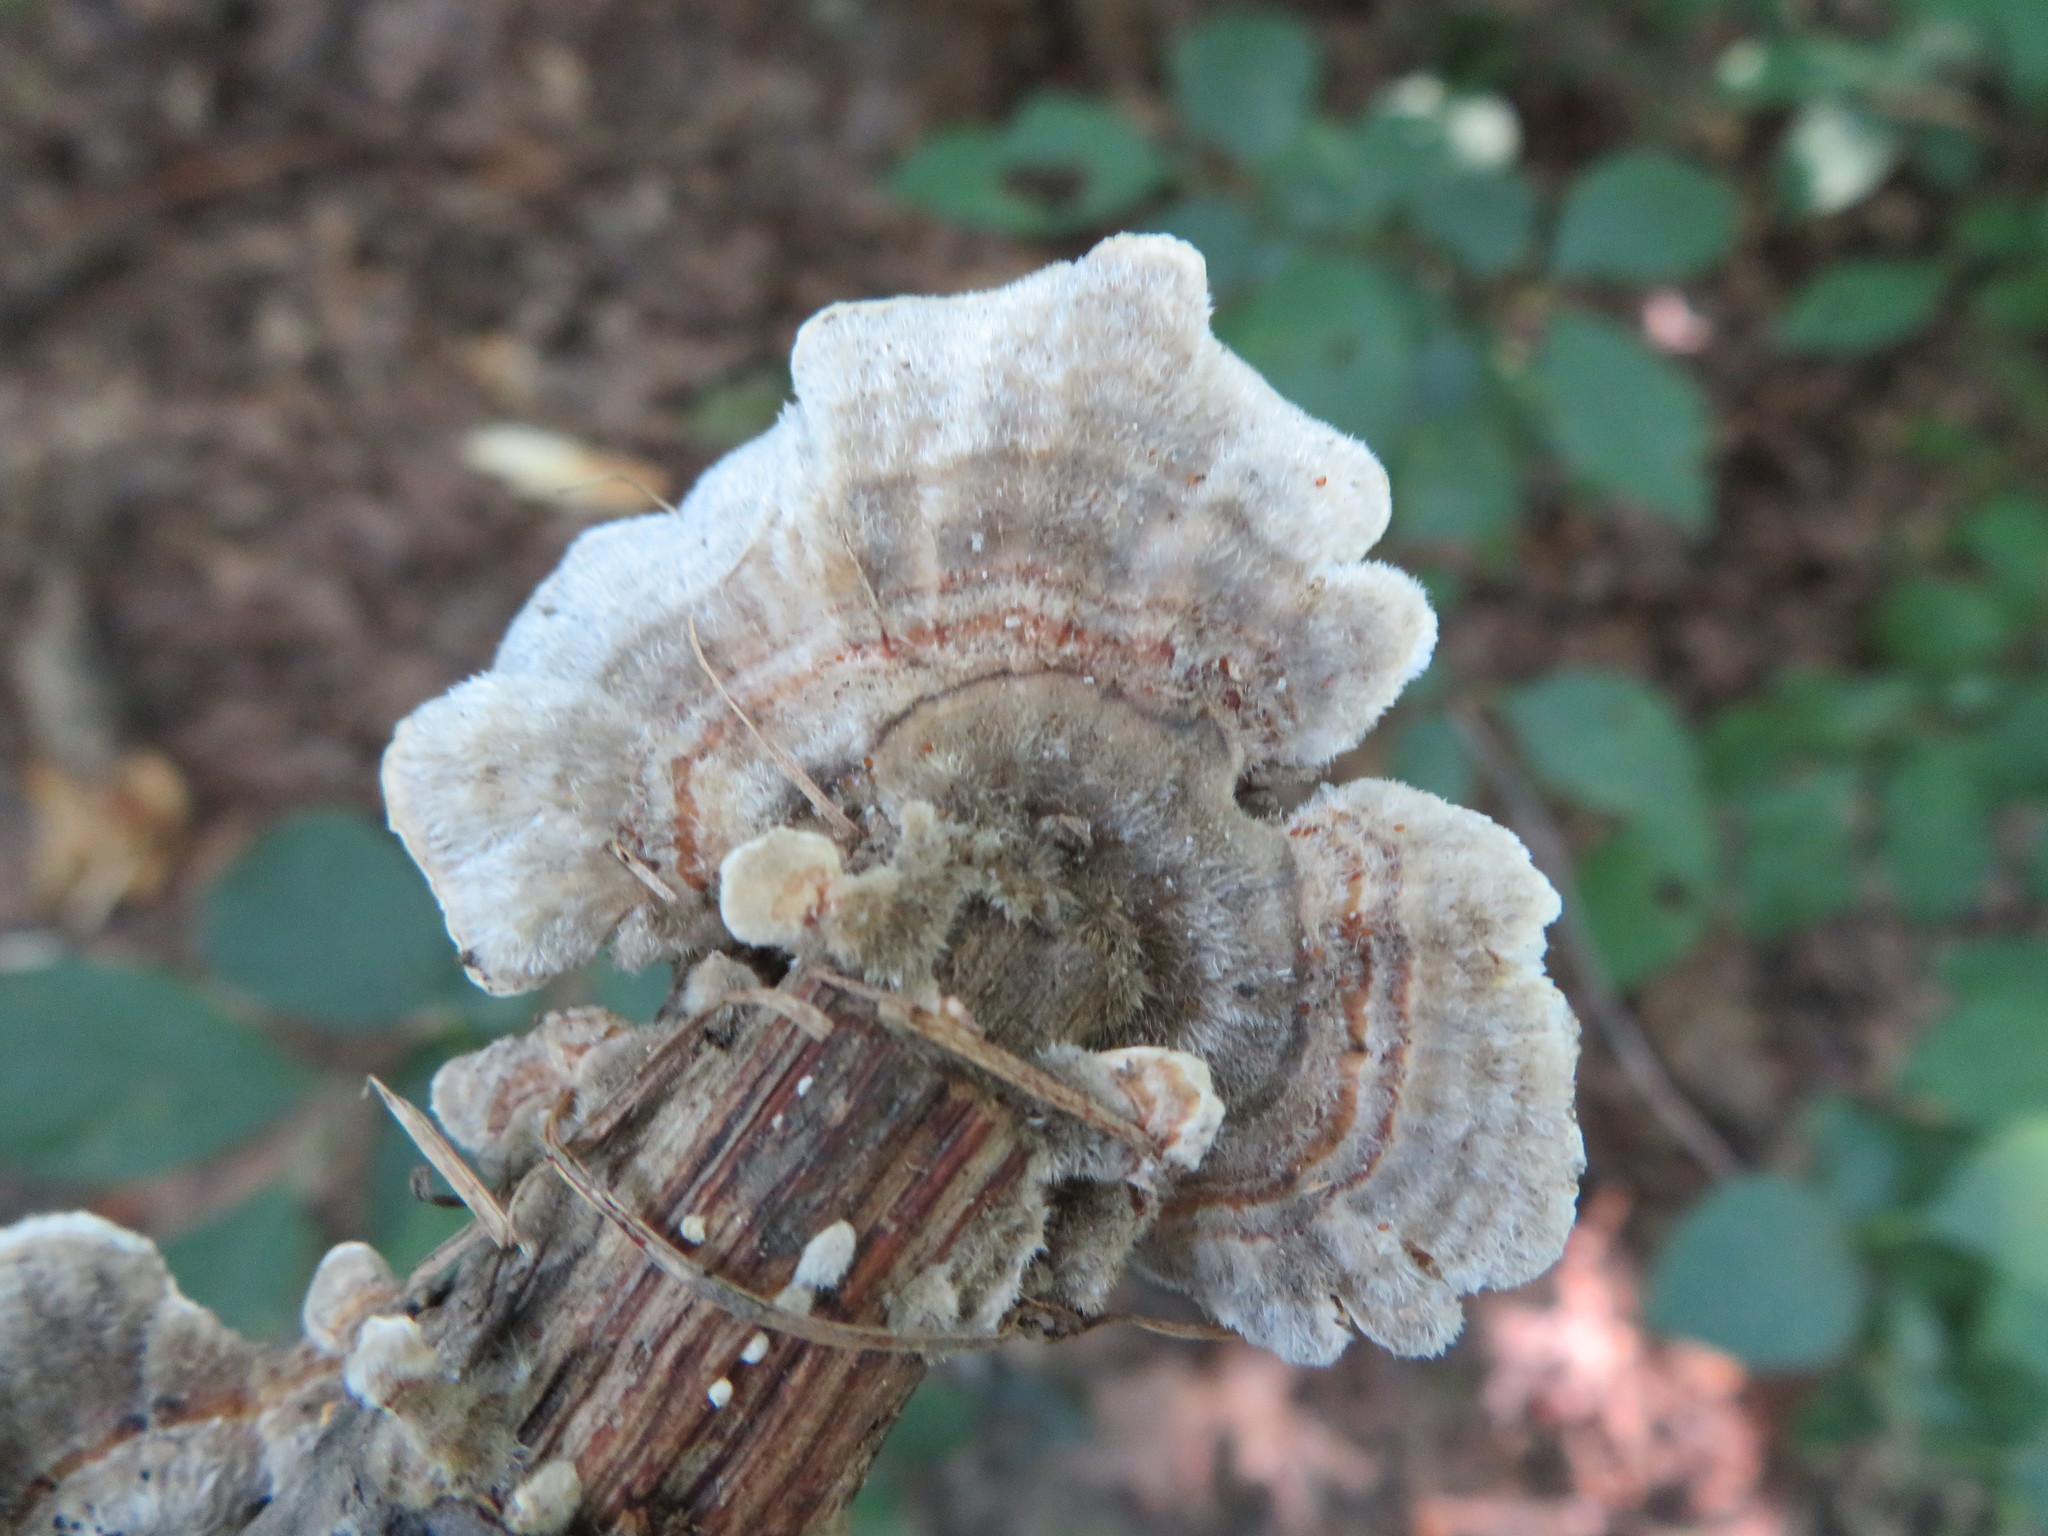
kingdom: Fungi
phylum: Basidiomycota
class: Agaricomycetes
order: Polyporales
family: Polyporaceae
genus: Trametes
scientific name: Trametes versicolor
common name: Turkeytail
